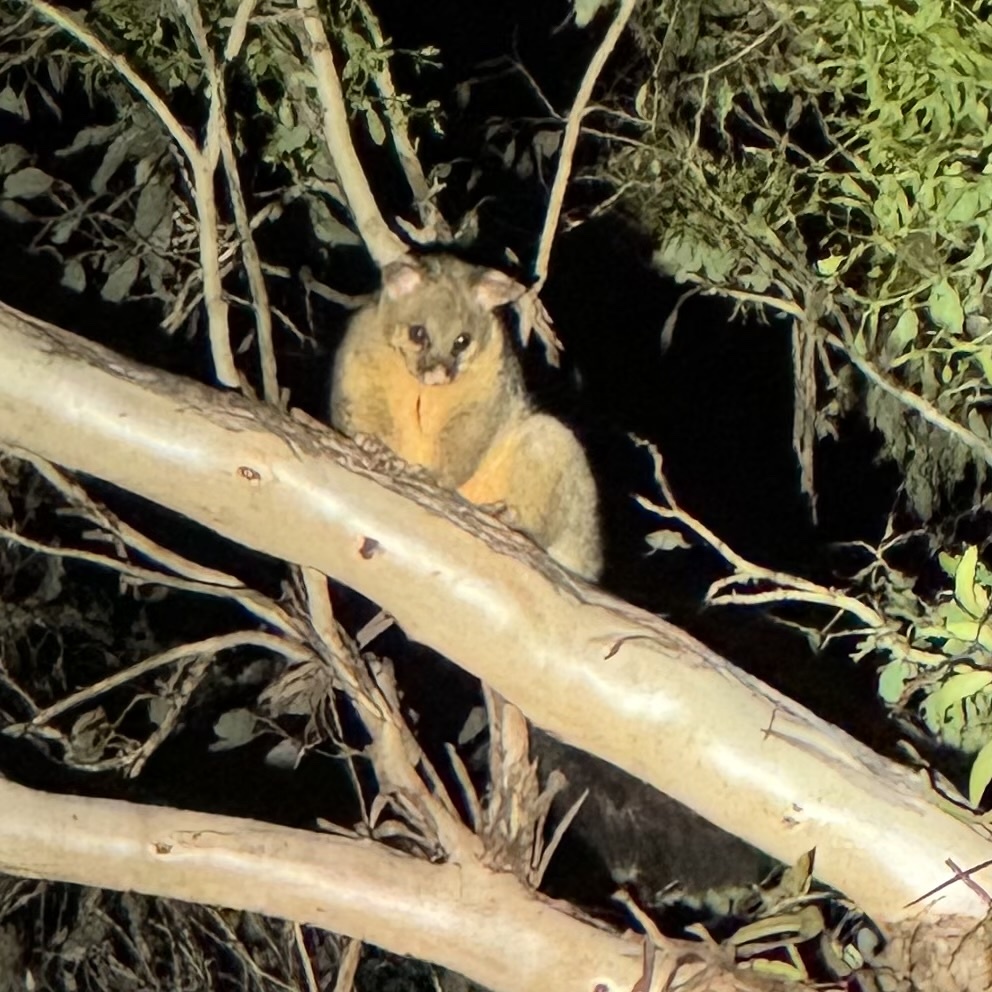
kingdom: Animalia
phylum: Chordata
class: Mammalia
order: Diprotodontia
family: Phalangeridae
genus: Trichosurus
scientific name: Trichosurus vulpecula
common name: Common brushtail
